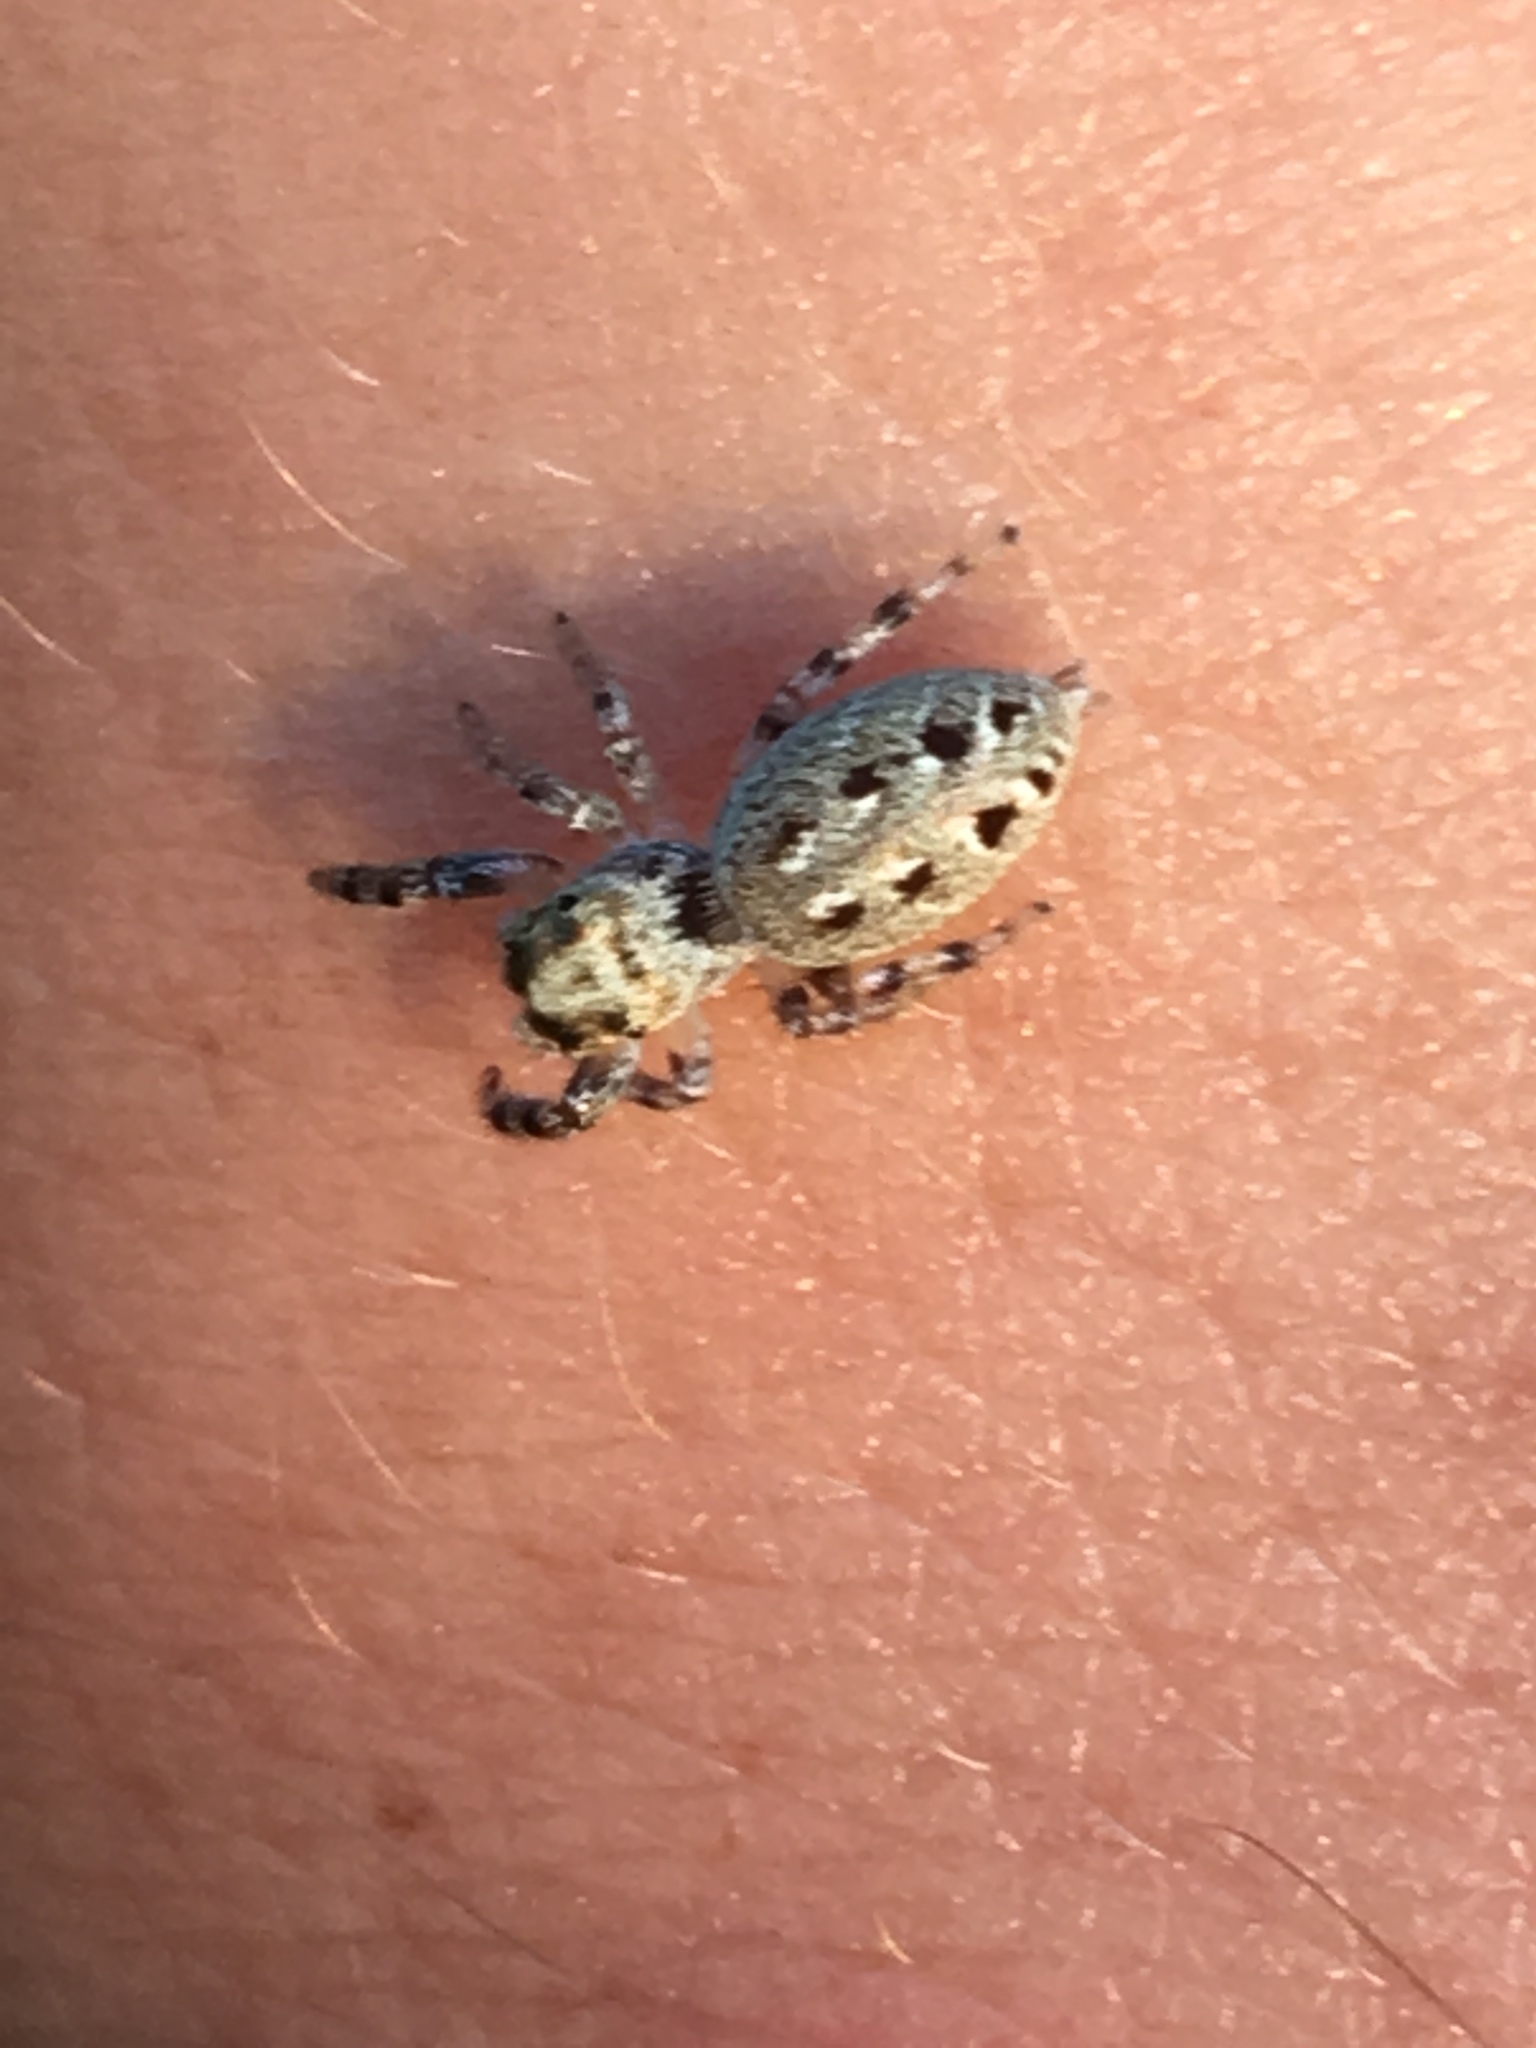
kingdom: Animalia
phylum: Arthropoda
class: Arachnida
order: Araneae
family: Salticidae
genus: Bagheera
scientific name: Bagheera prosper
